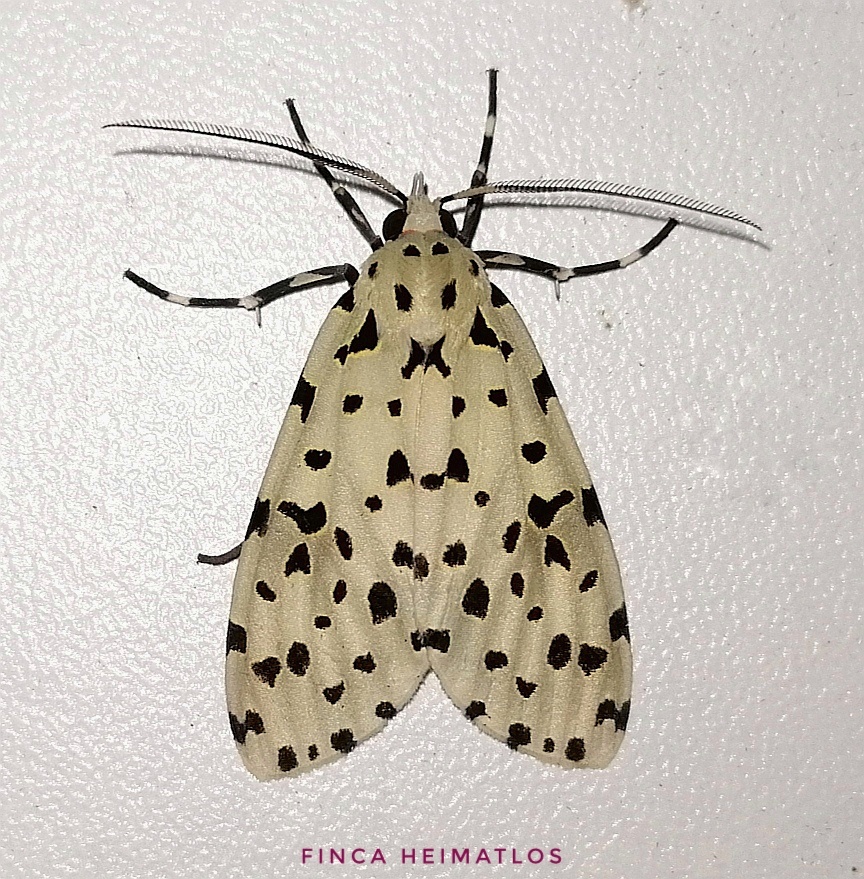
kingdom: Animalia
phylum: Arthropoda
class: Insecta
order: Lepidoptera
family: Erebidae
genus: Eucereon
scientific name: Eucereon formosum
